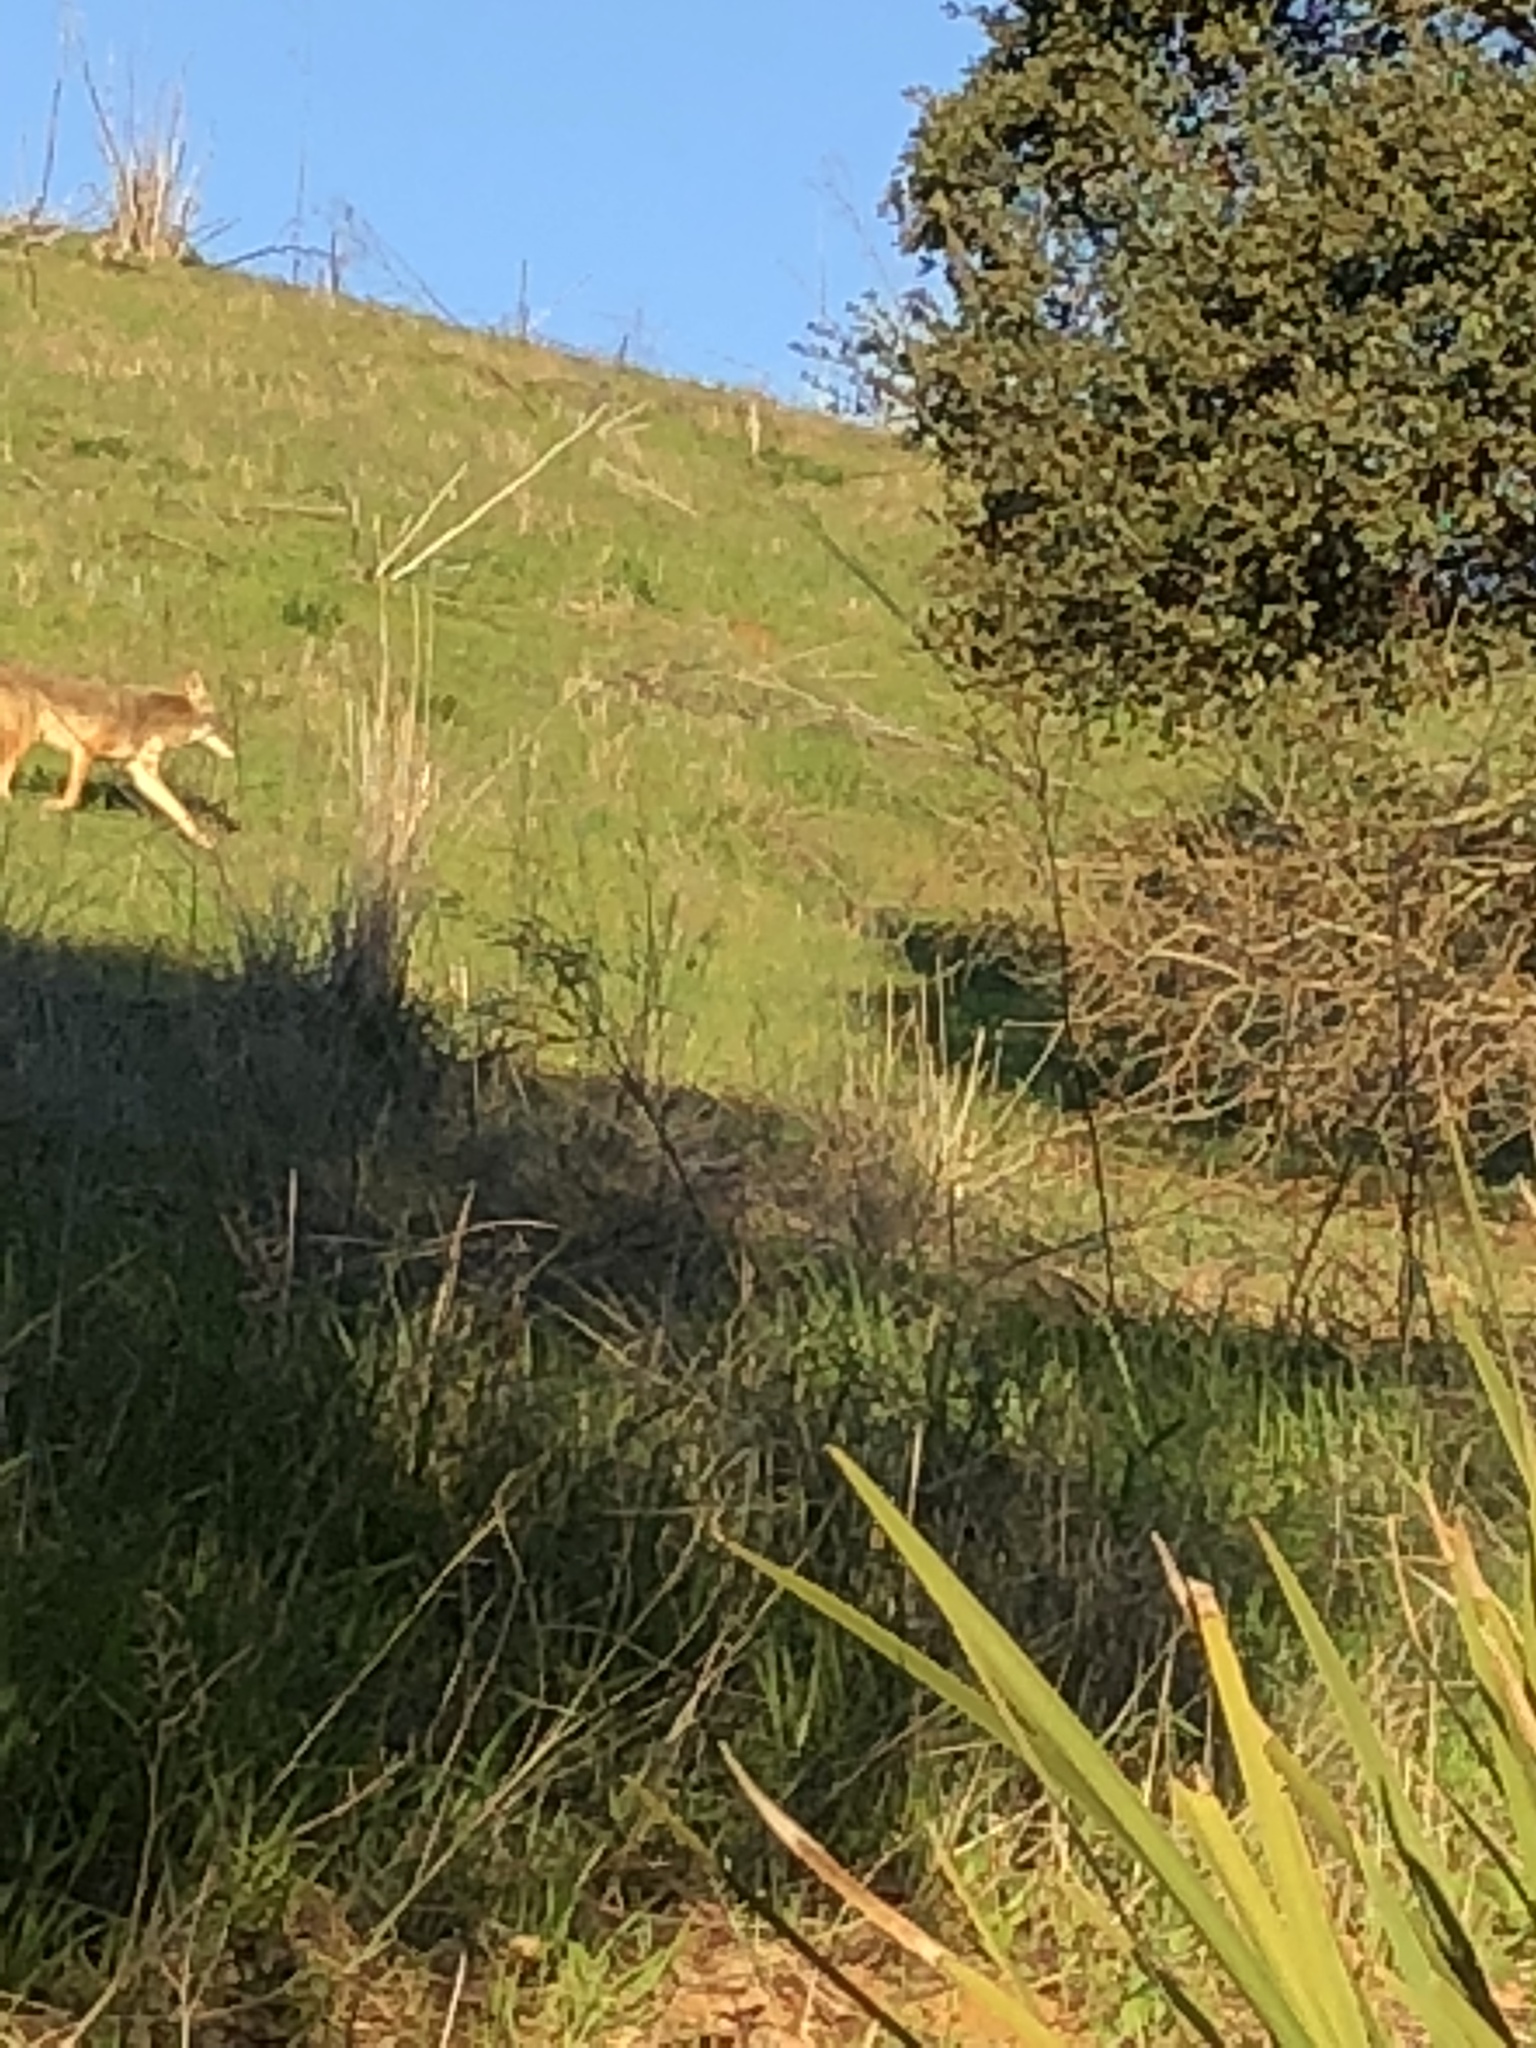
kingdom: Animalia
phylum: Chordata
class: Mammalia
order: Carnivora
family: Canidae
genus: Canis
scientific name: Canis latrans
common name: Coyote
